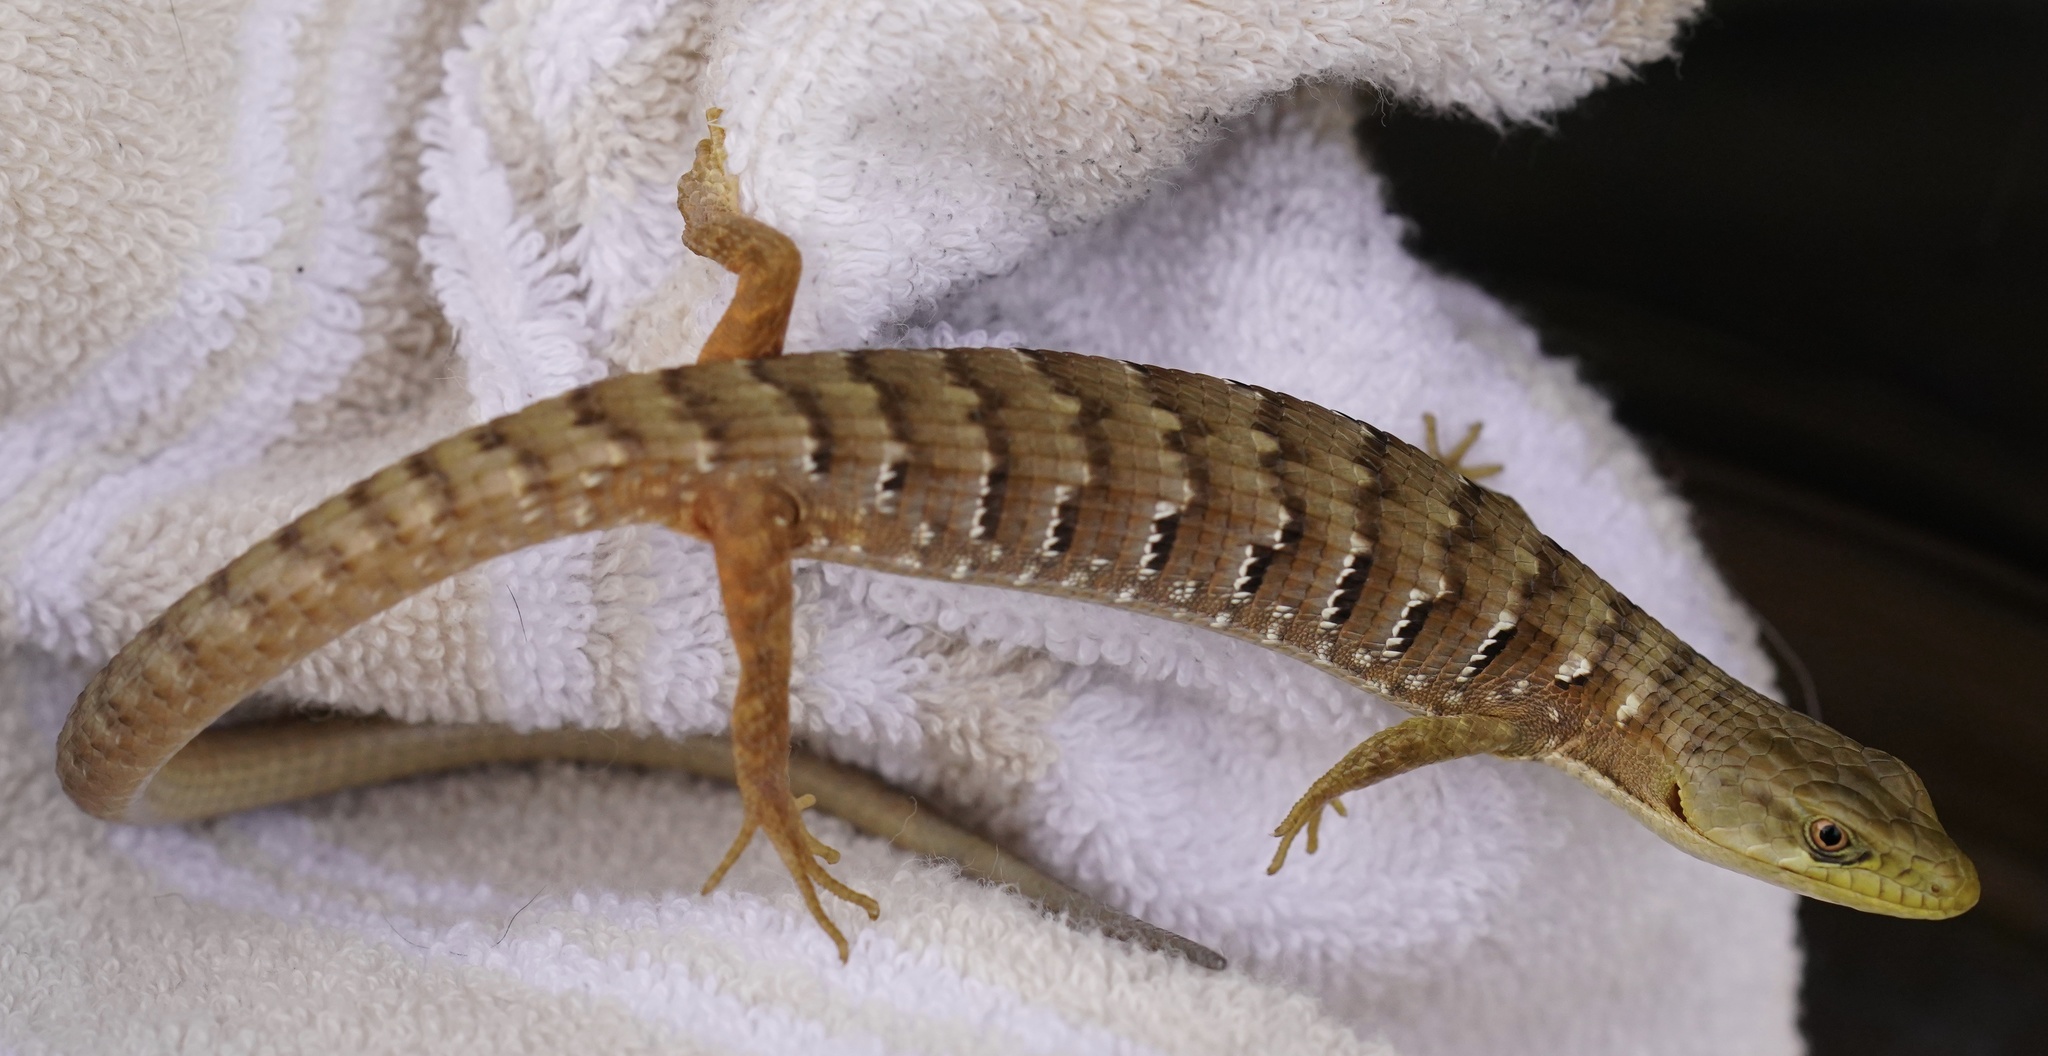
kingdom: Animalia
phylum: Chordata
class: Squamata
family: Anguidae
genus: Elgaria
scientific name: Elgaria multicarinata
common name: Southern alligator lizard
